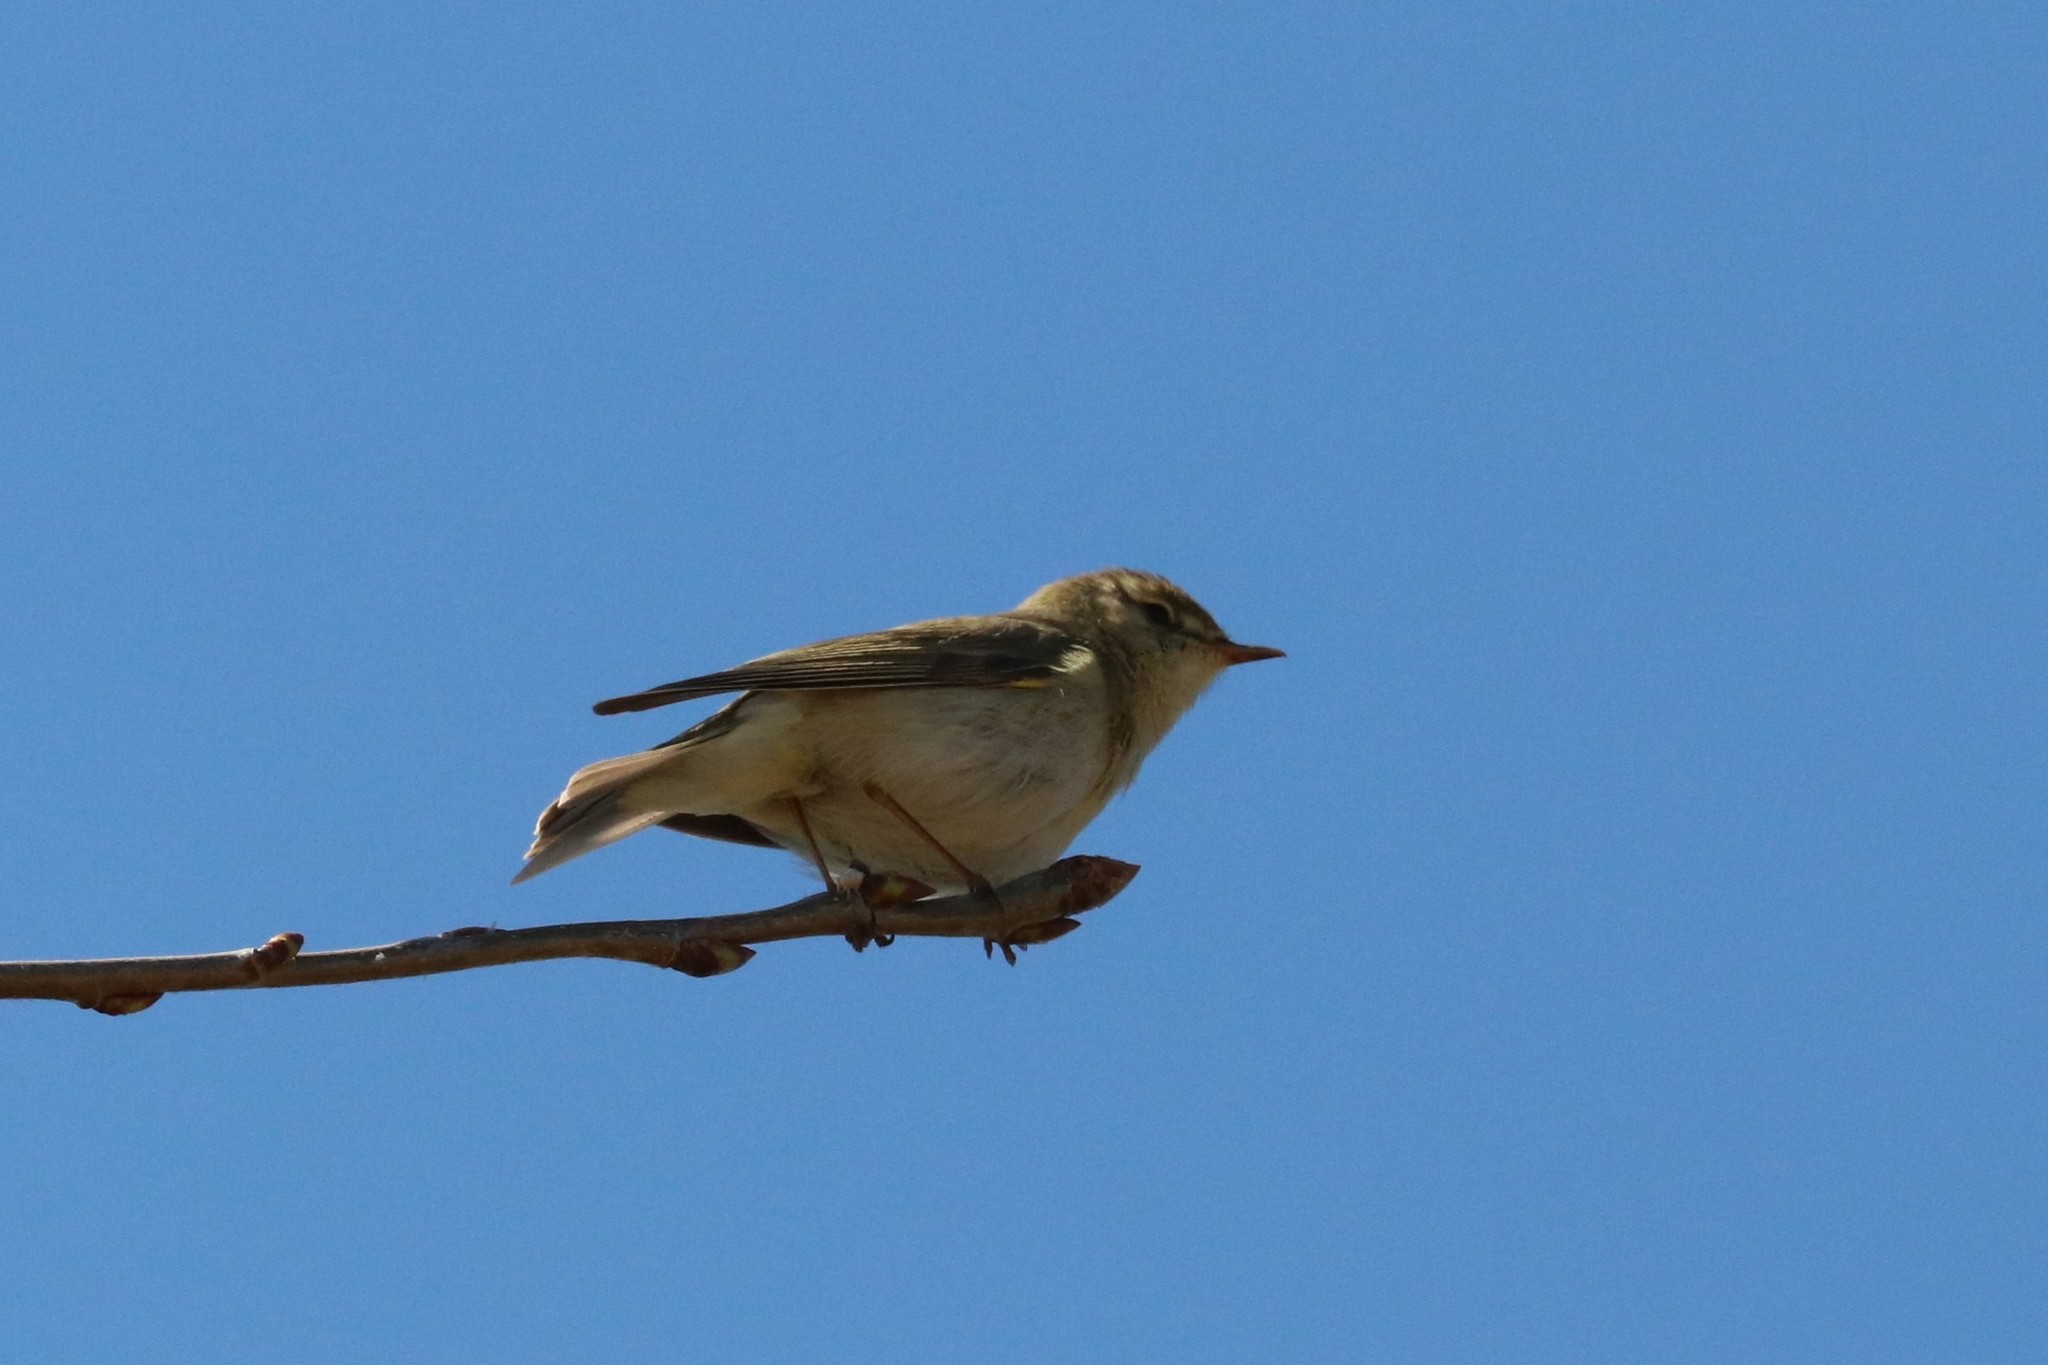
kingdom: Animalia
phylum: Chordata
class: Aves
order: Passeriformes
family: Phylloscopidae
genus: Phylloscopus
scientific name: Phylloscopus trochilus
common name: Willow warbler
